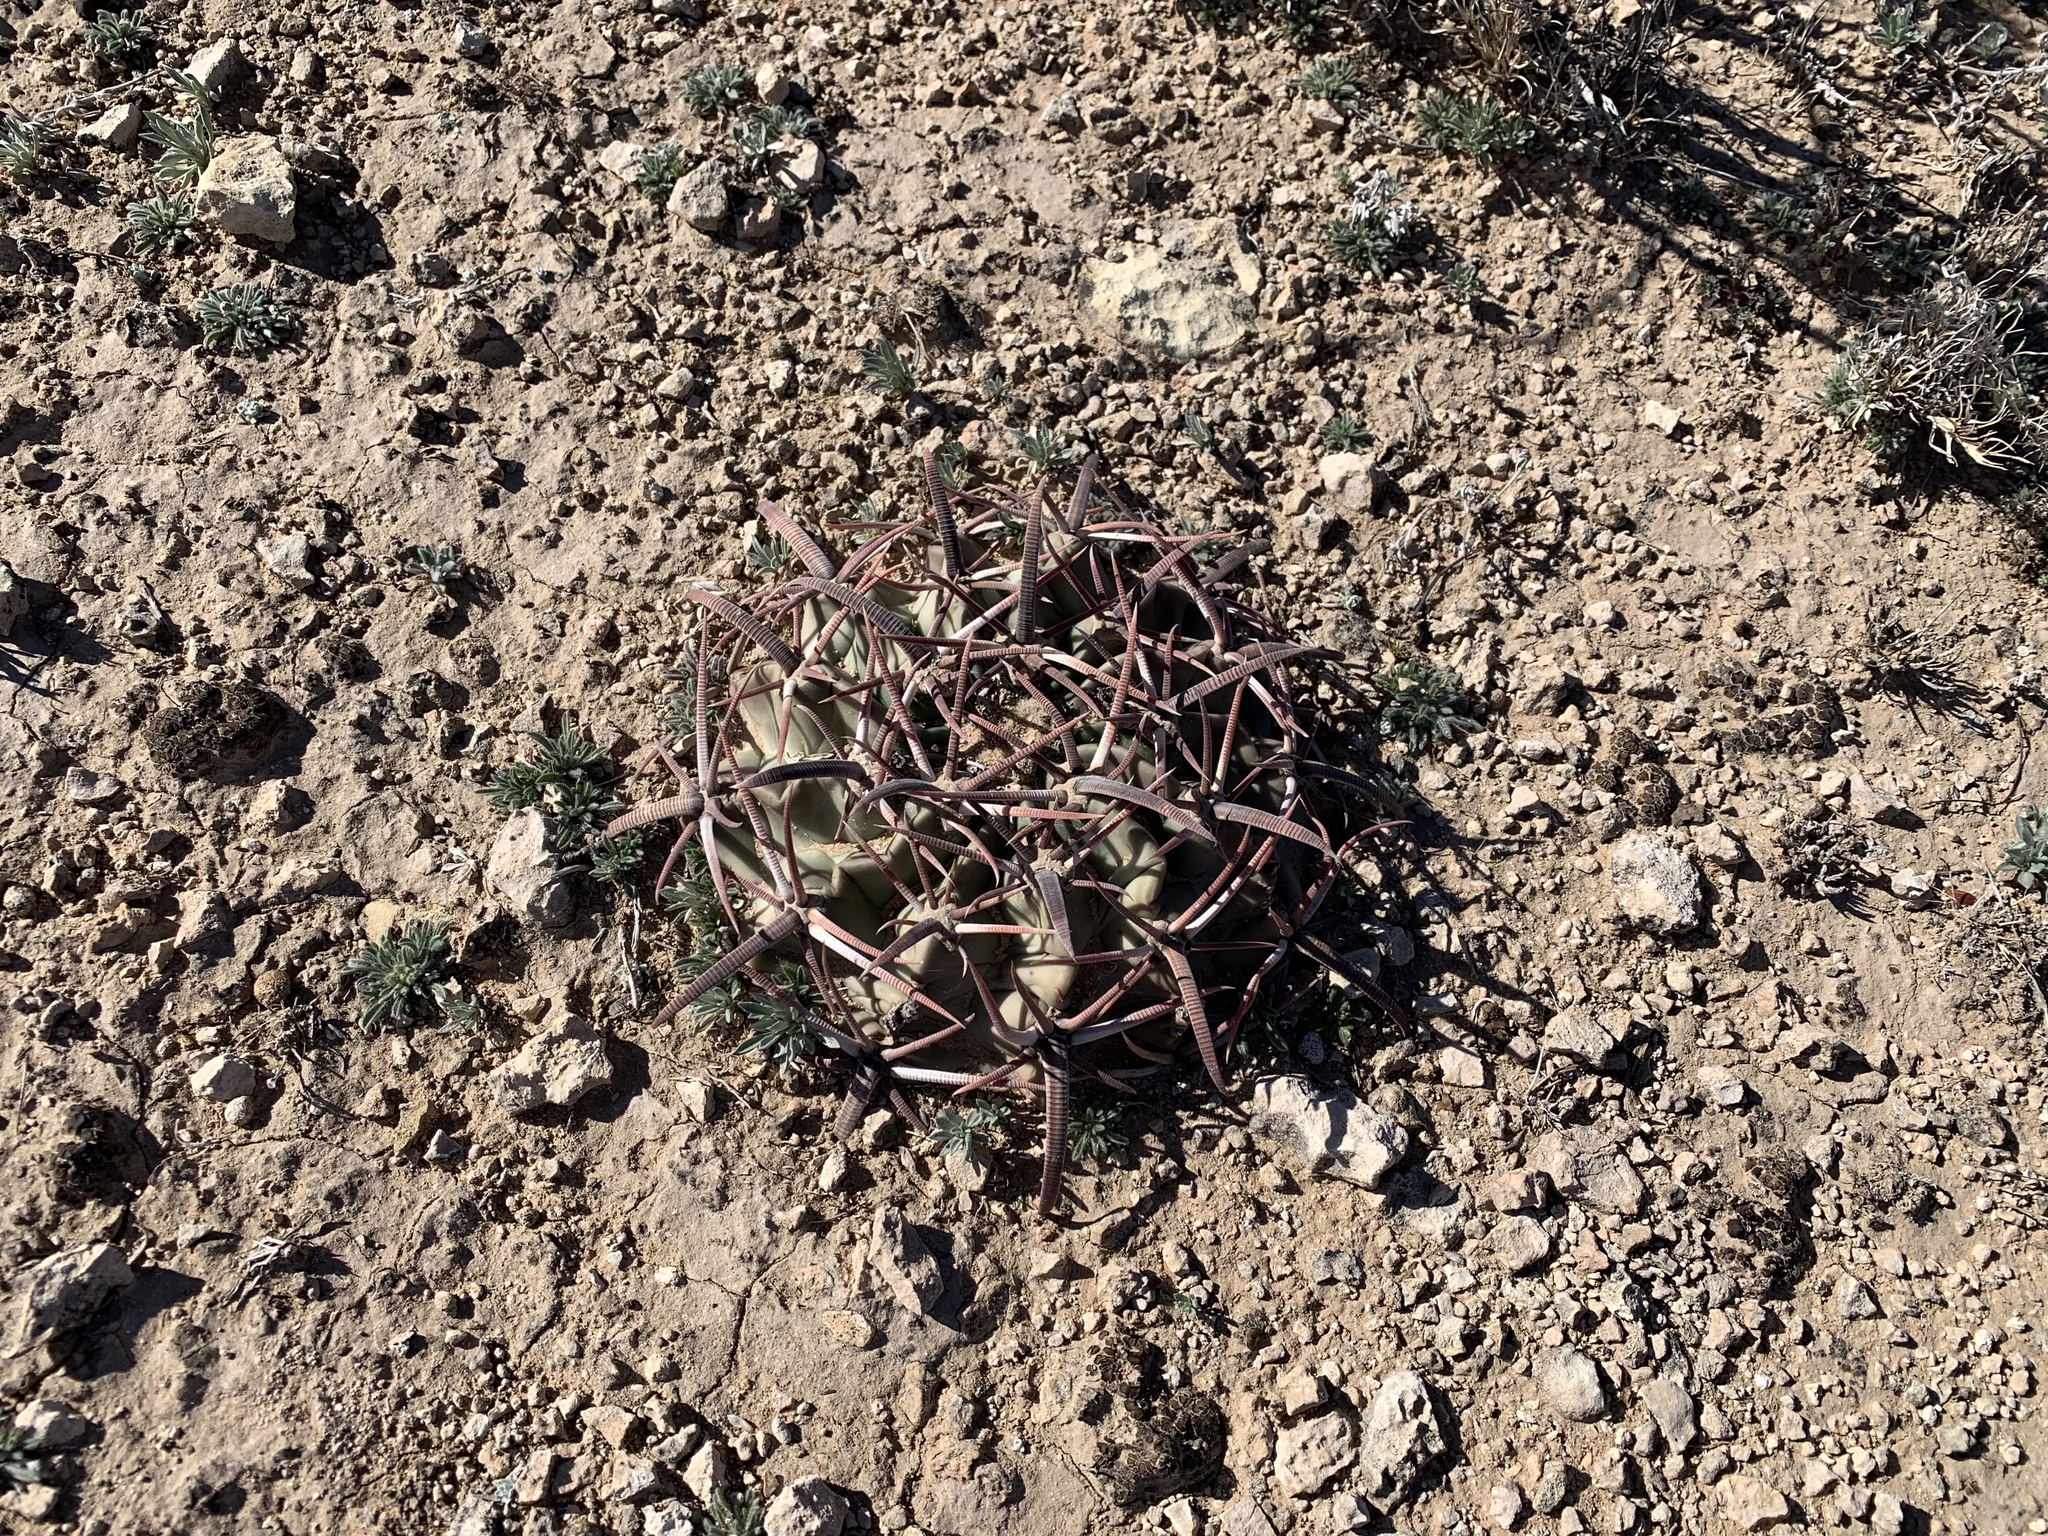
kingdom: Plantae
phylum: Tracheophyta
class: Magnoliopsida
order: Caryophyllales
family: Cactaceae
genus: Echinocactus
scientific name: Echinocactus texensis
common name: Devil's pincushion
